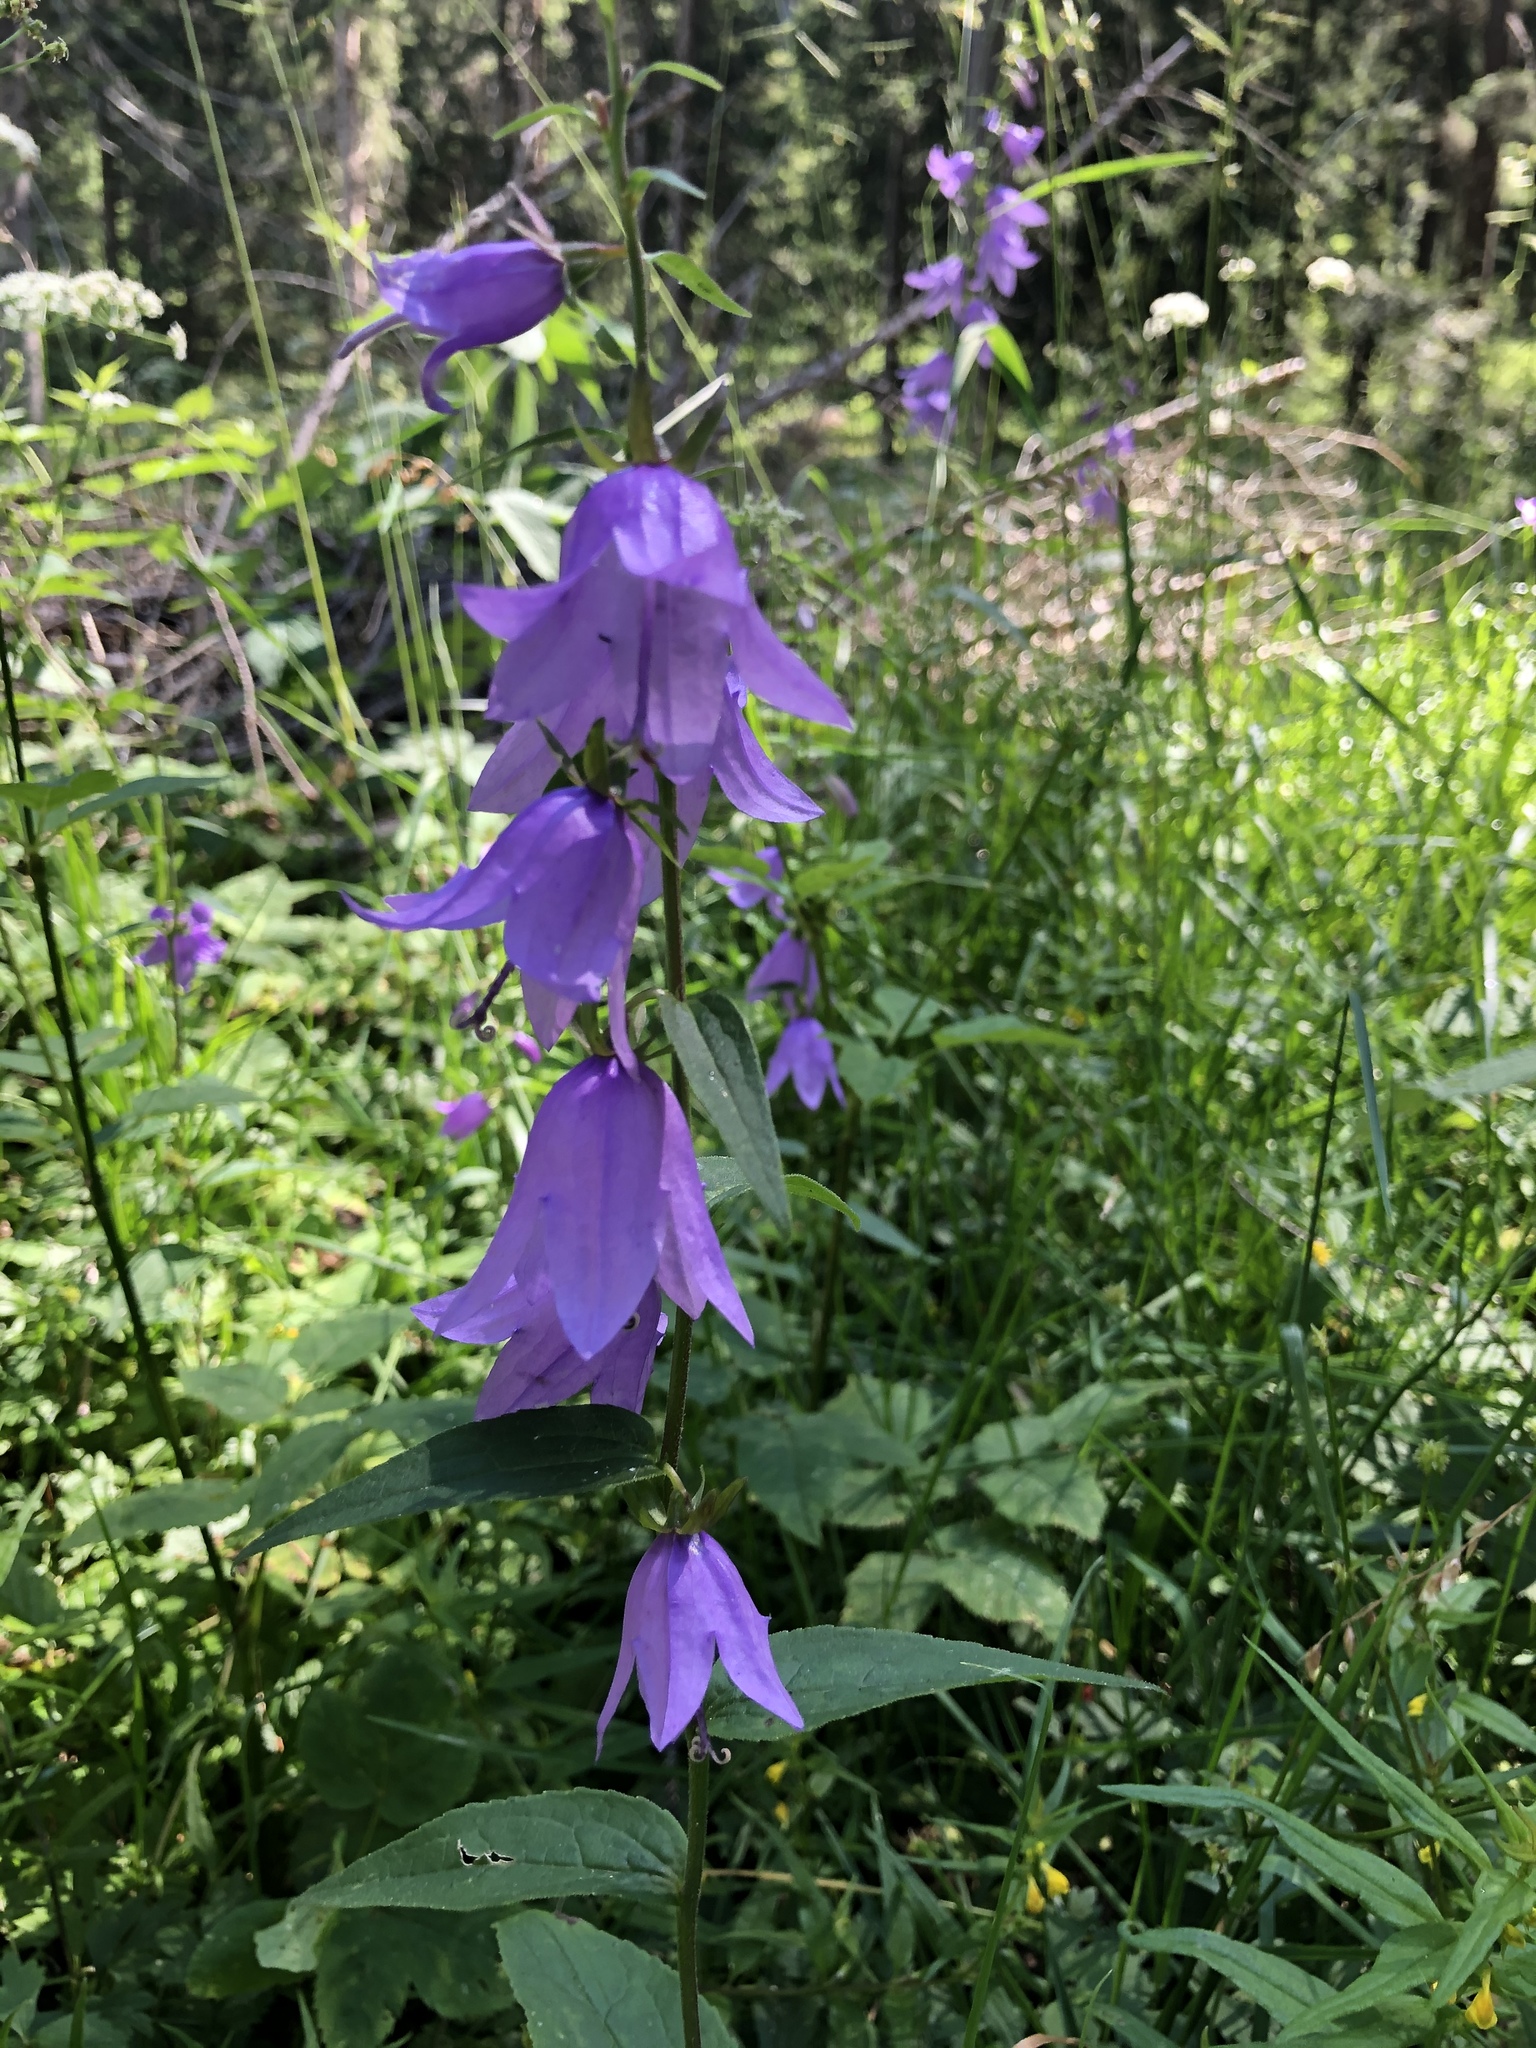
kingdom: Plantae
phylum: Tracheophyta
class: Magnoliopsida
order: Asterales
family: Campanulaceae
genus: Campanula
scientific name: Campanula rapunculoides
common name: Creeping bellflower
